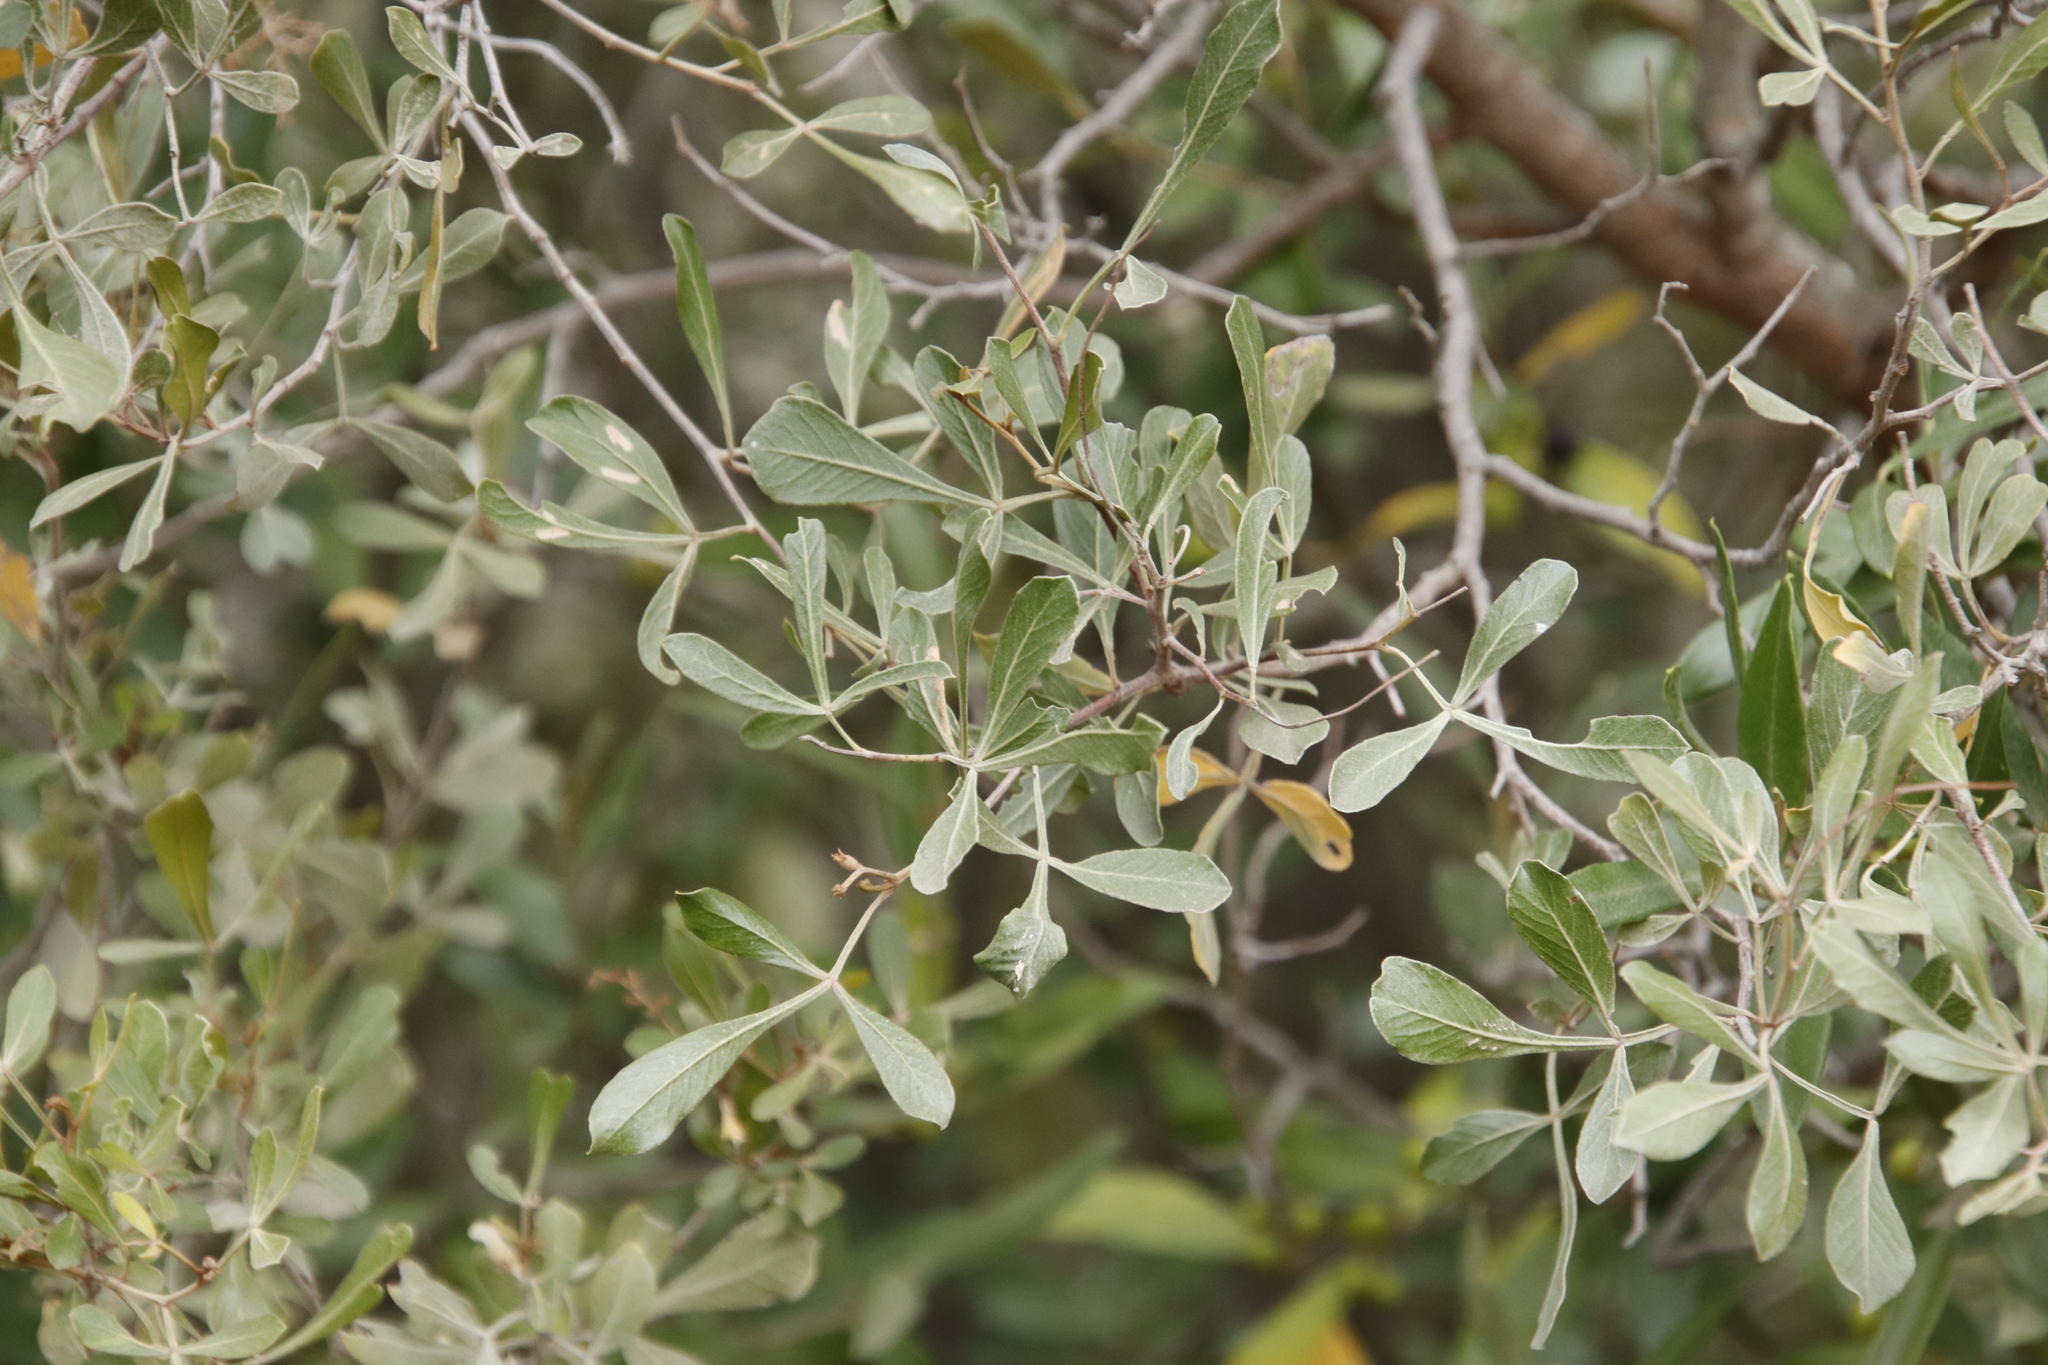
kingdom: Plantae
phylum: Tracheophyta
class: Magnoliopsida
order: Sapindales
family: Anacardiaceae
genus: Searsia
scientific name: Searsia pallens
